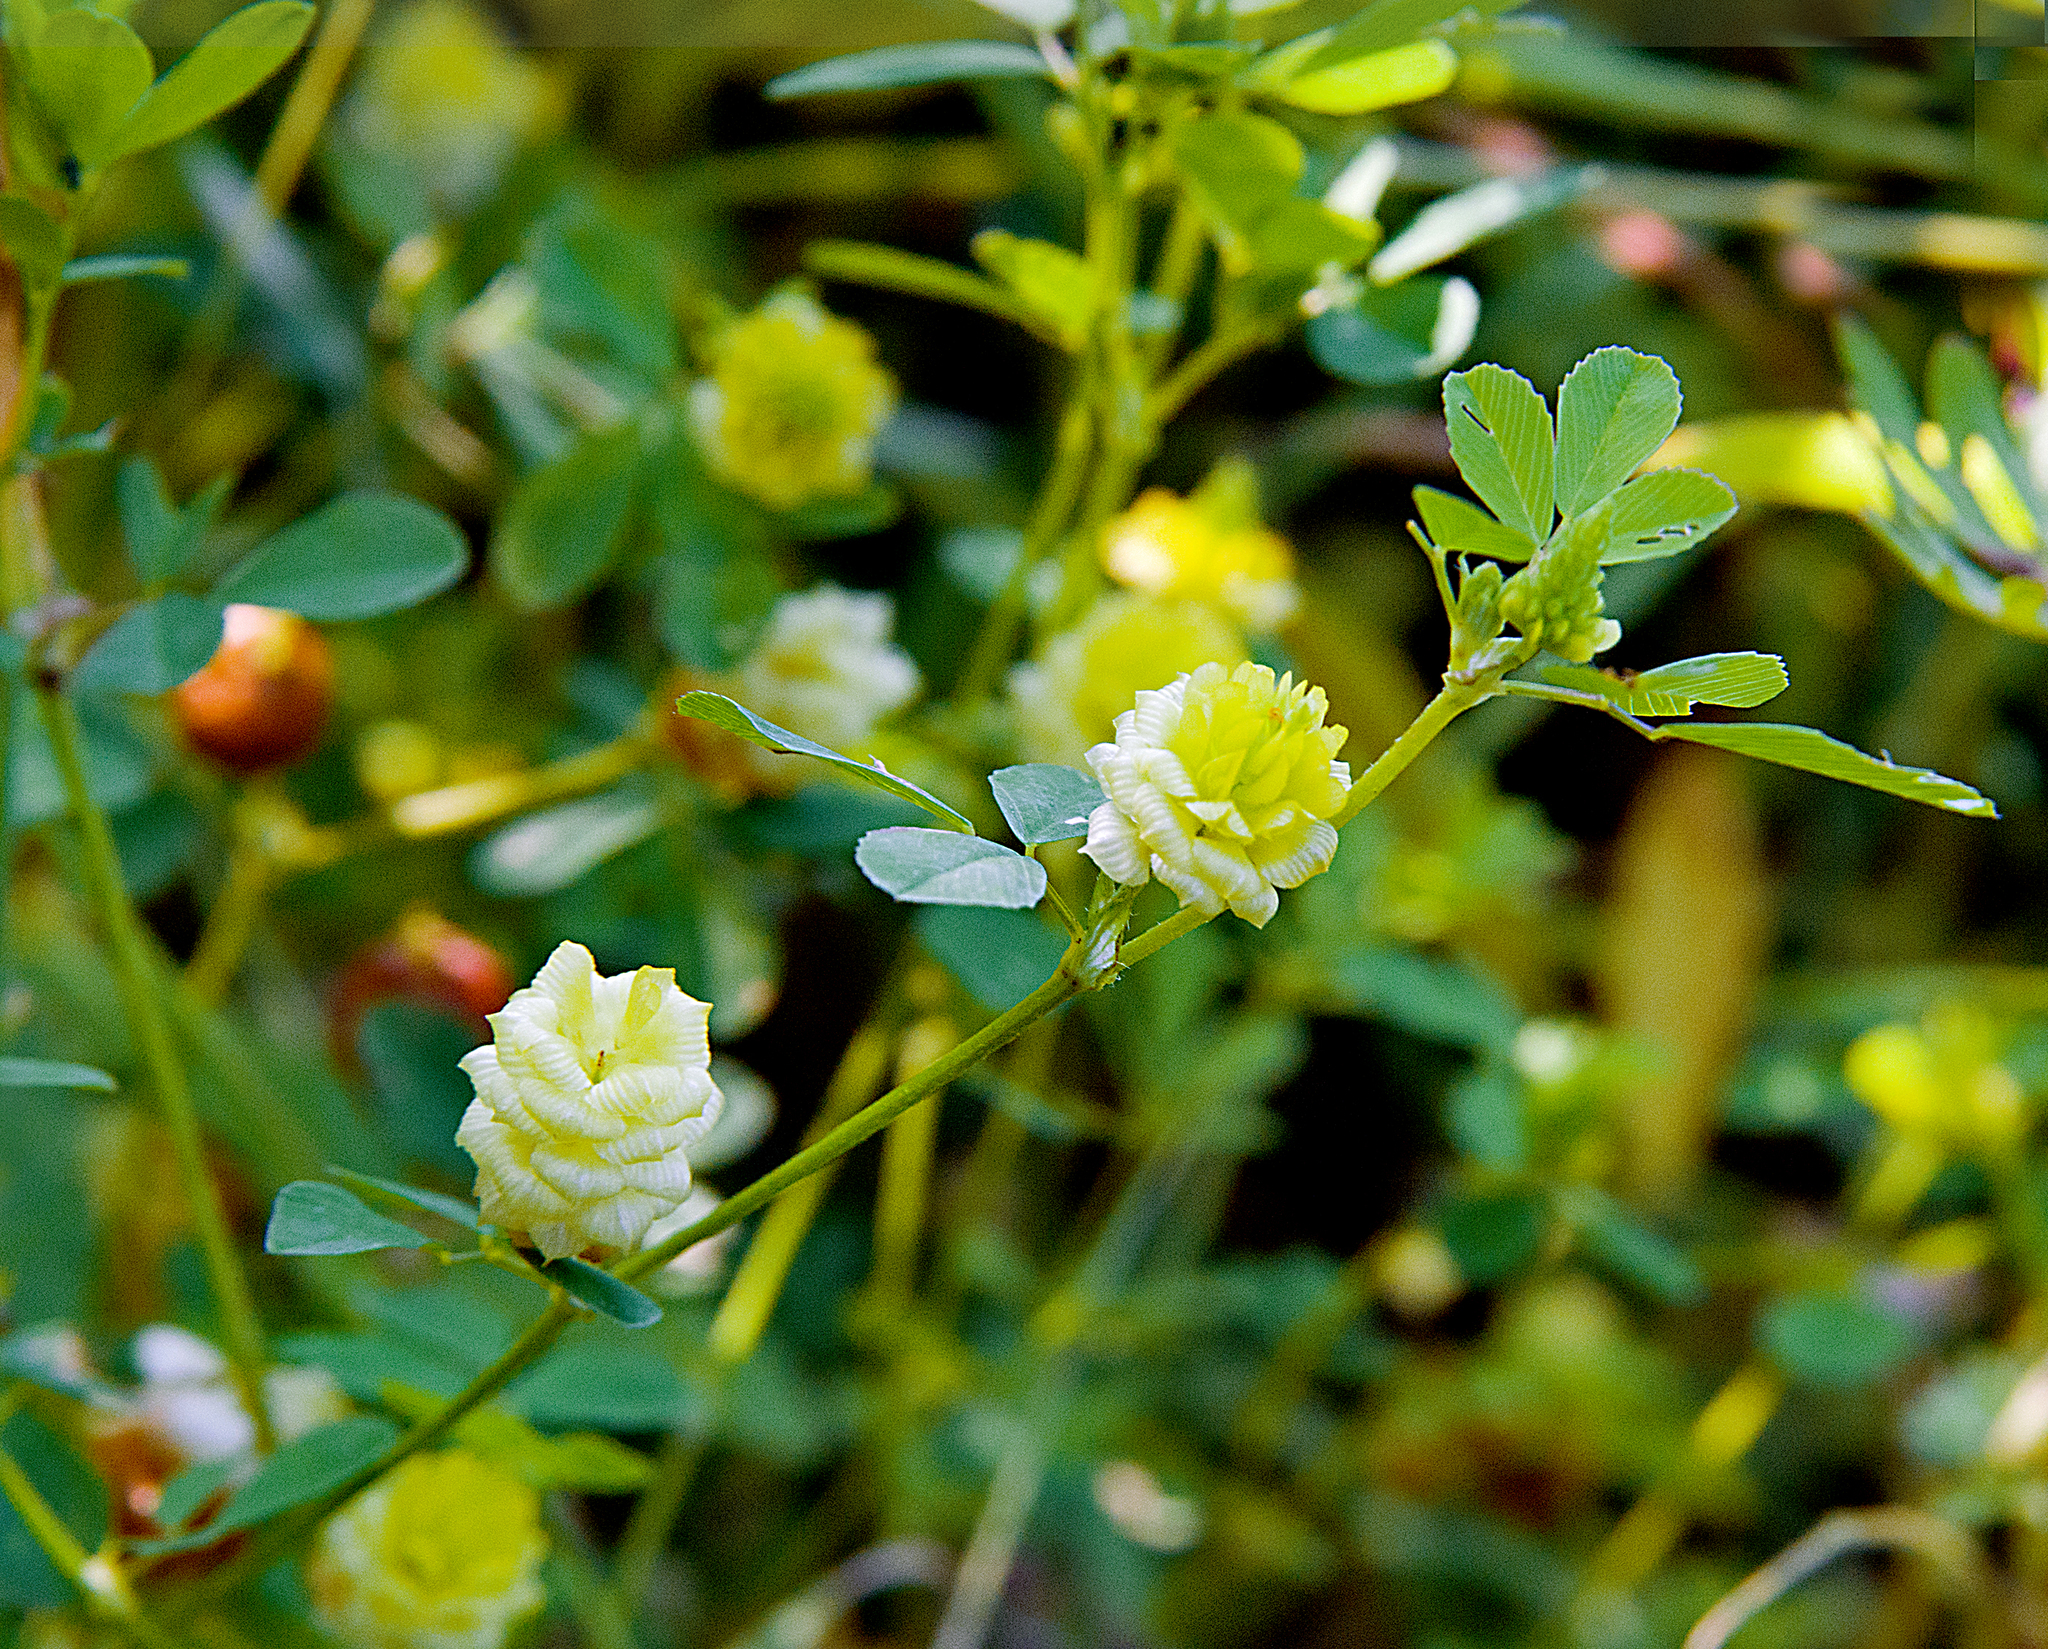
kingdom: Plantae
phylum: Tracheophyta
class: Magnoliopsida
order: Fabales
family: Fabaceae
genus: Trifolium
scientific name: Trifolium campestre
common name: Field clover
